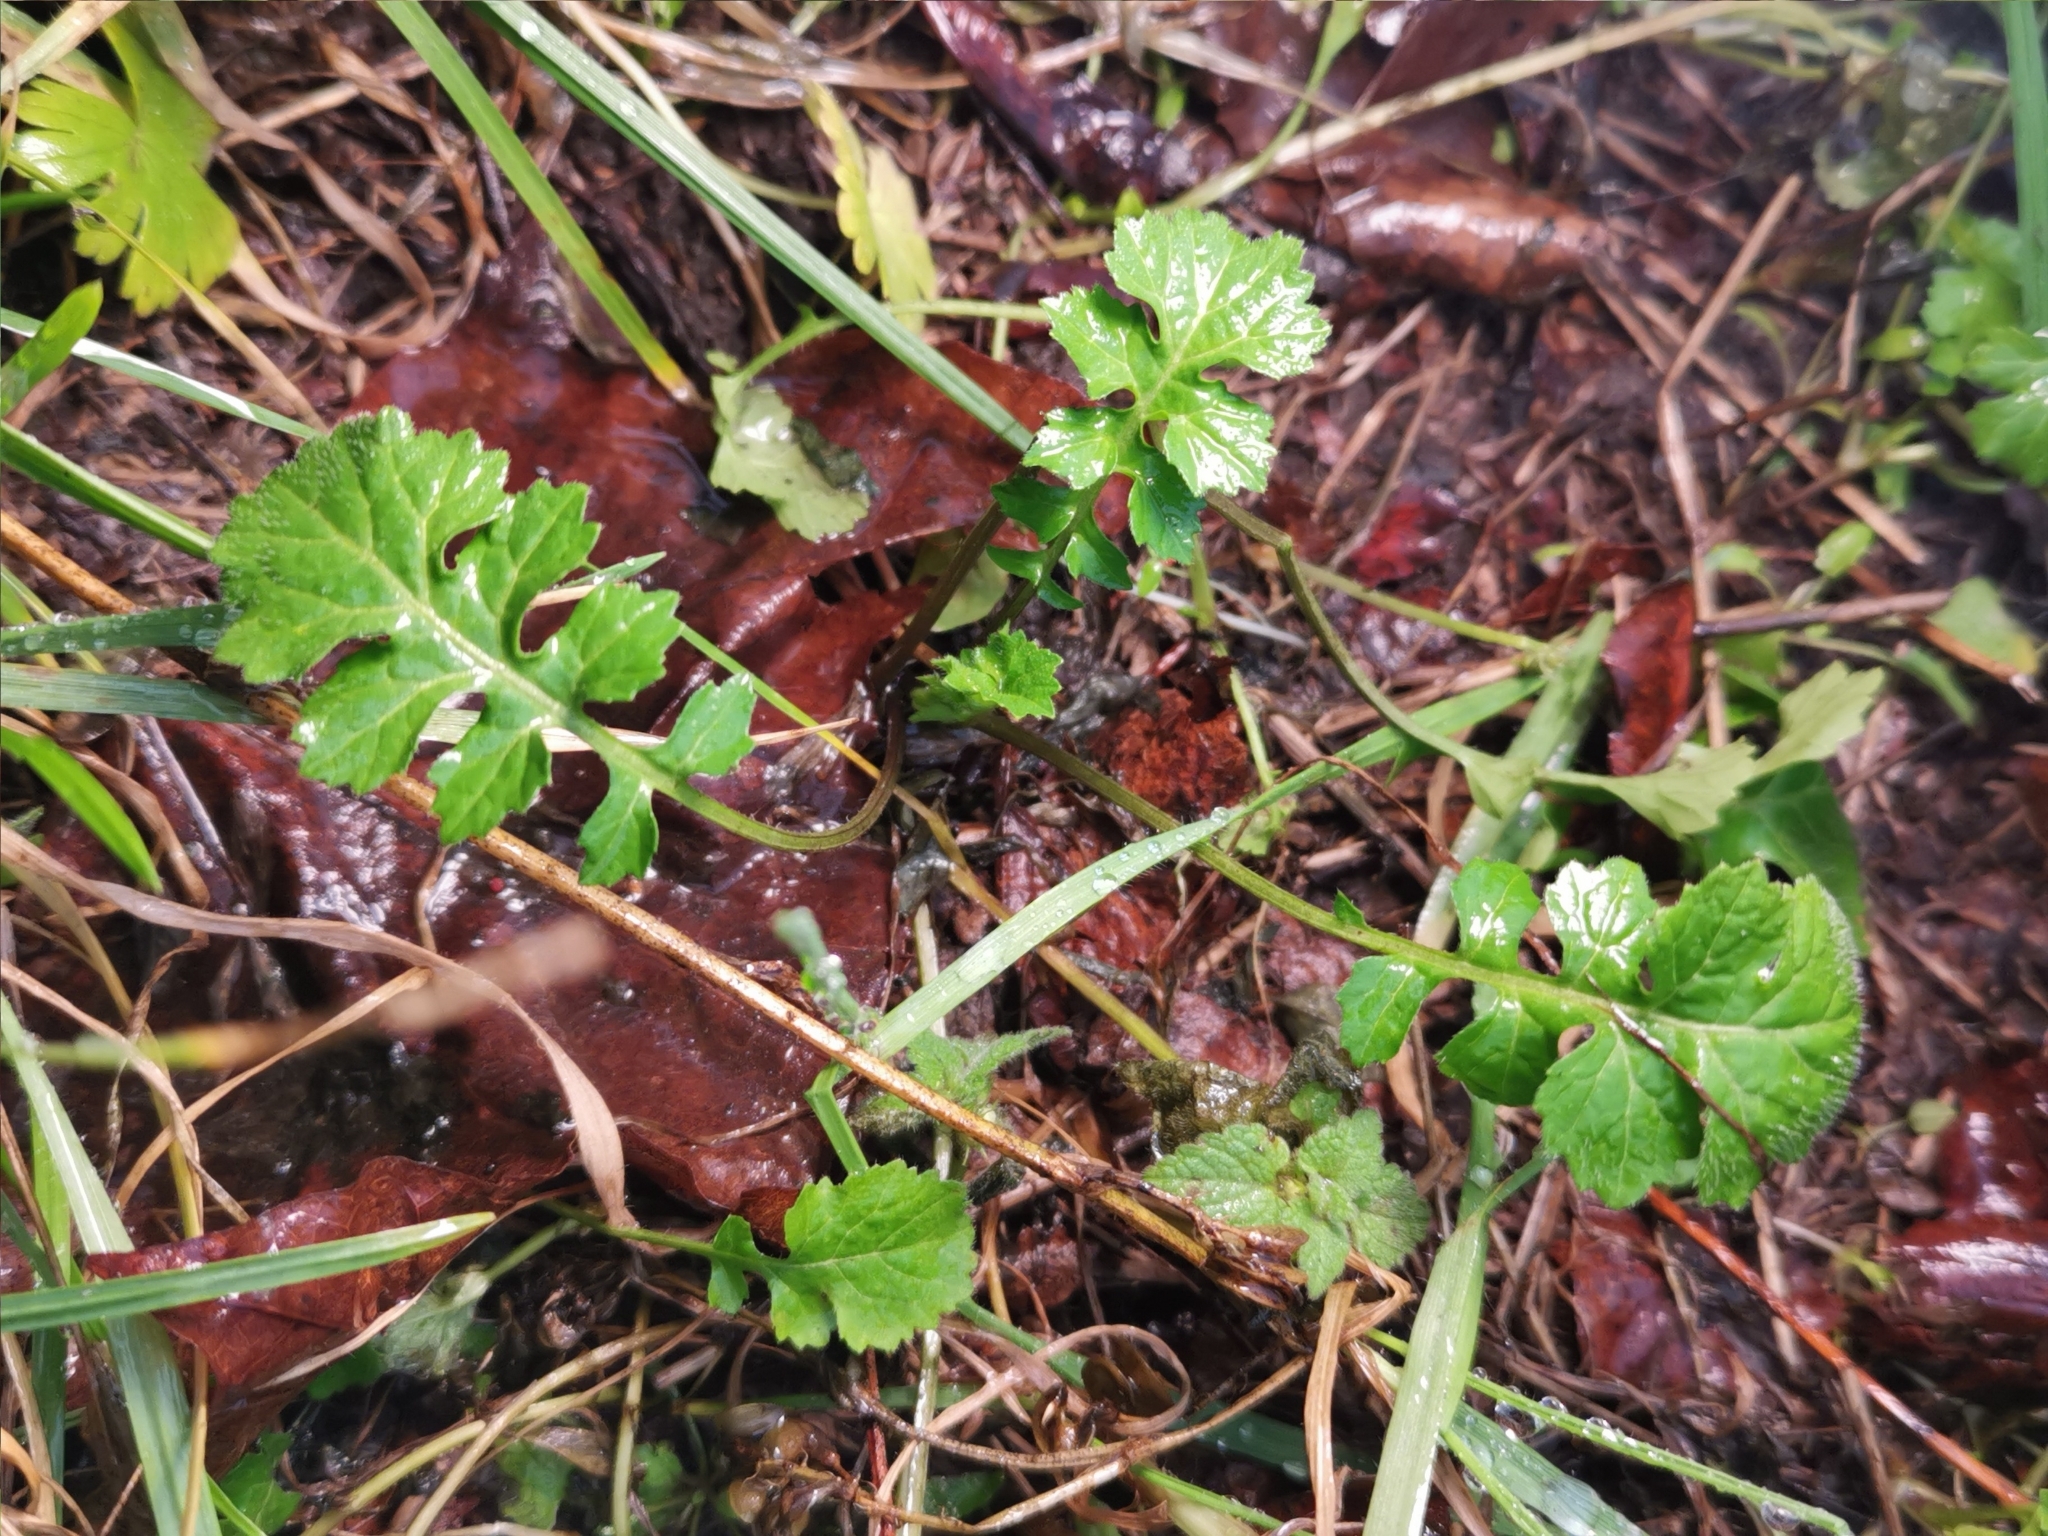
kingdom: Plantae
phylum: Tracheophyta
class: Magnoliopsida
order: Brassicales
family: Brassicaceae
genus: Sisymbrium
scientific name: Sisymbrium officinale
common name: Hedge mustard
